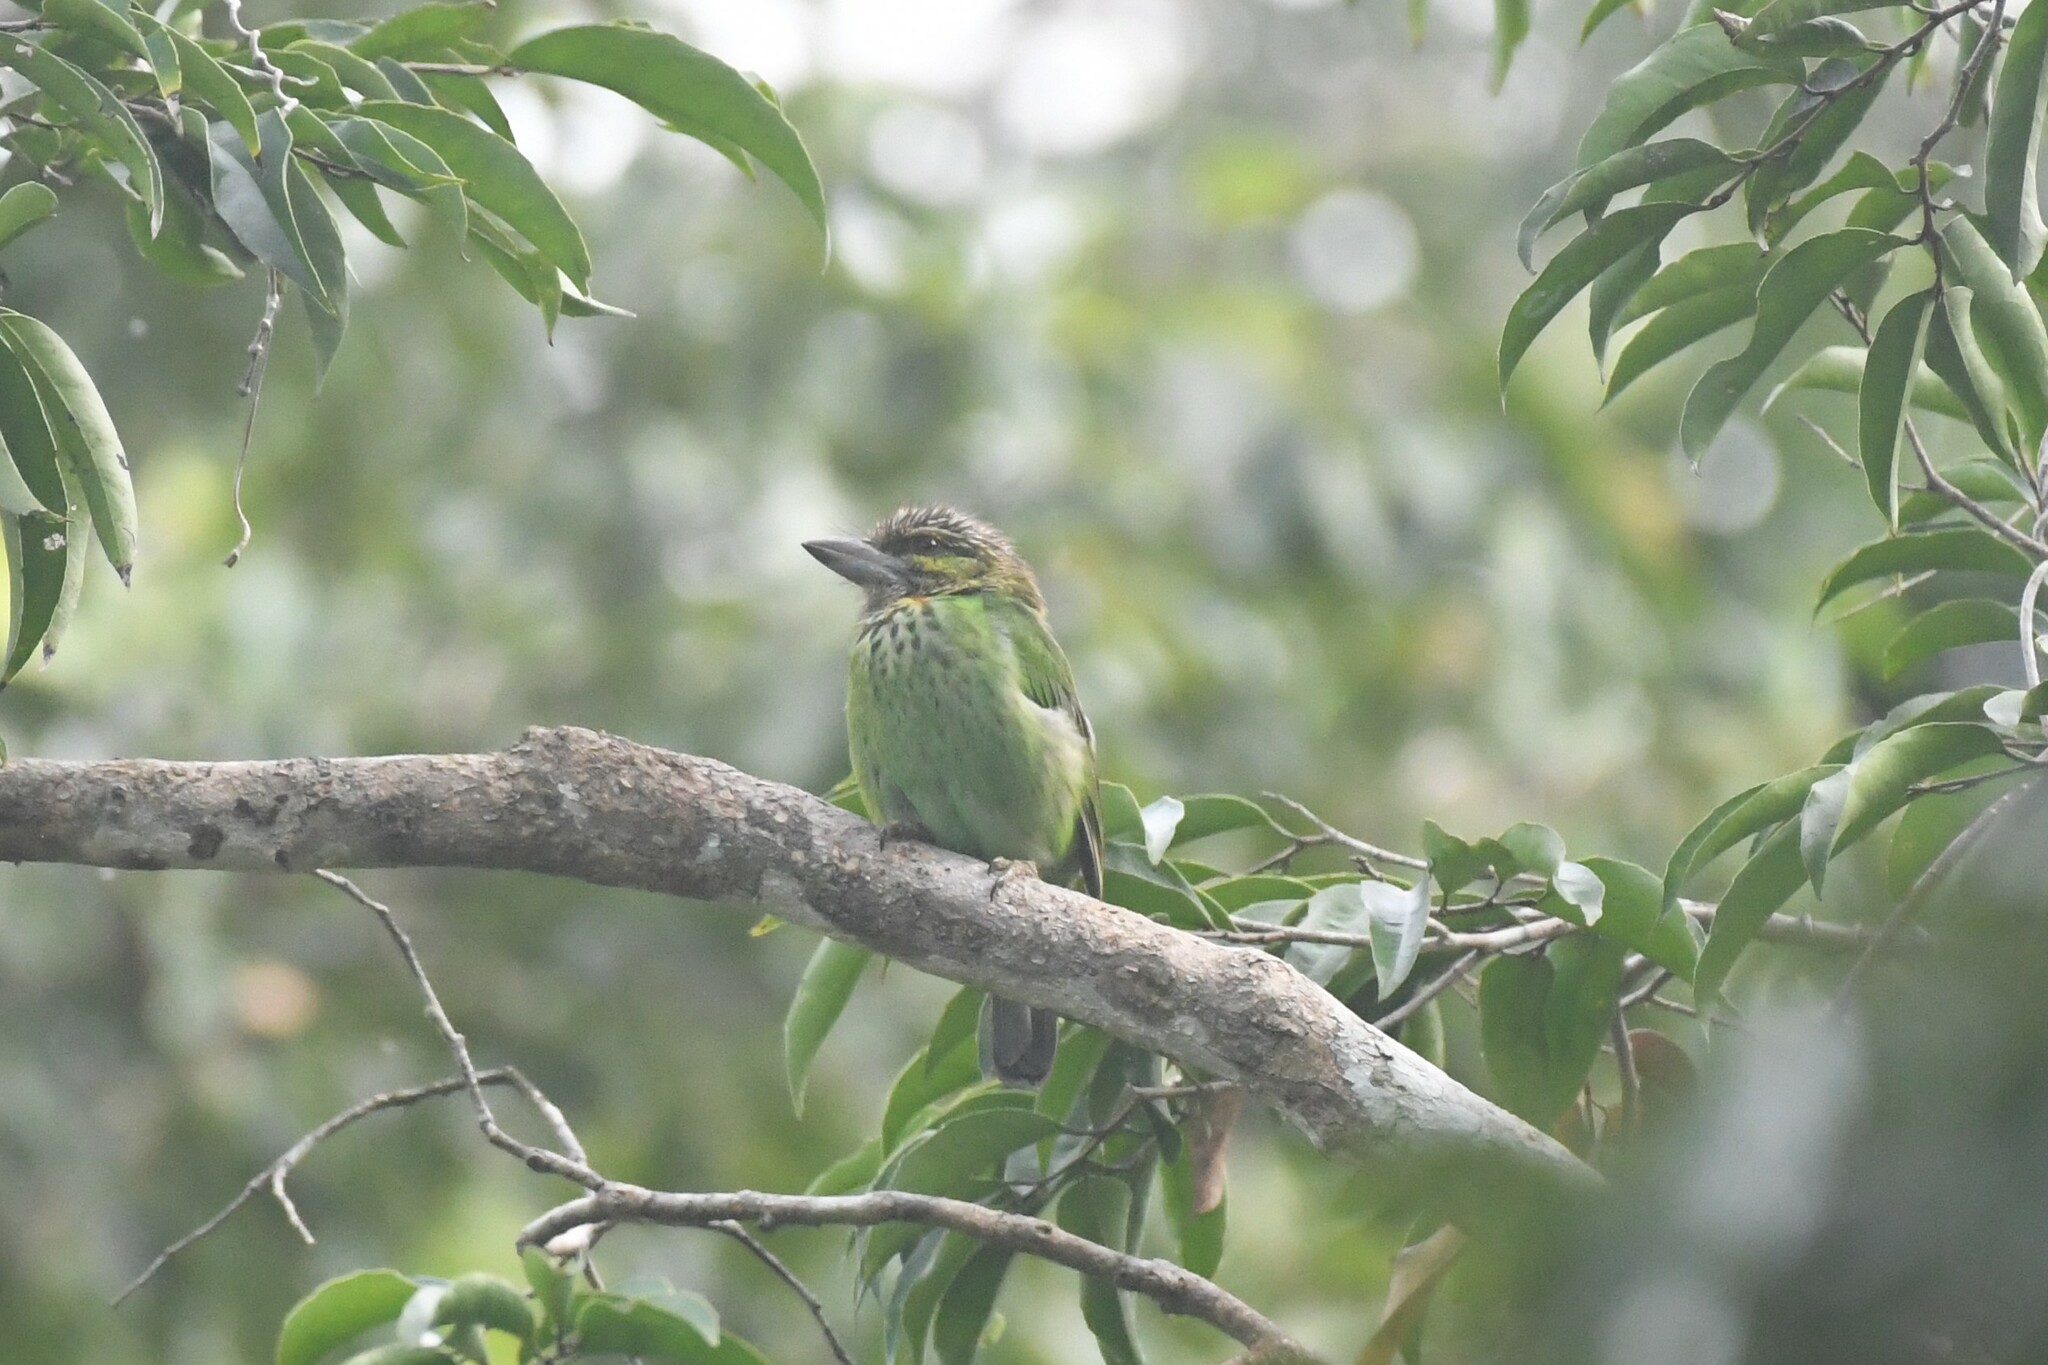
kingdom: Animalia
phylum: Chordata
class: Aves
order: Piciformes
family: Megalaimidae
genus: Psilopogon
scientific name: Psilopogon faiostrictus
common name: Green-eared barbet
